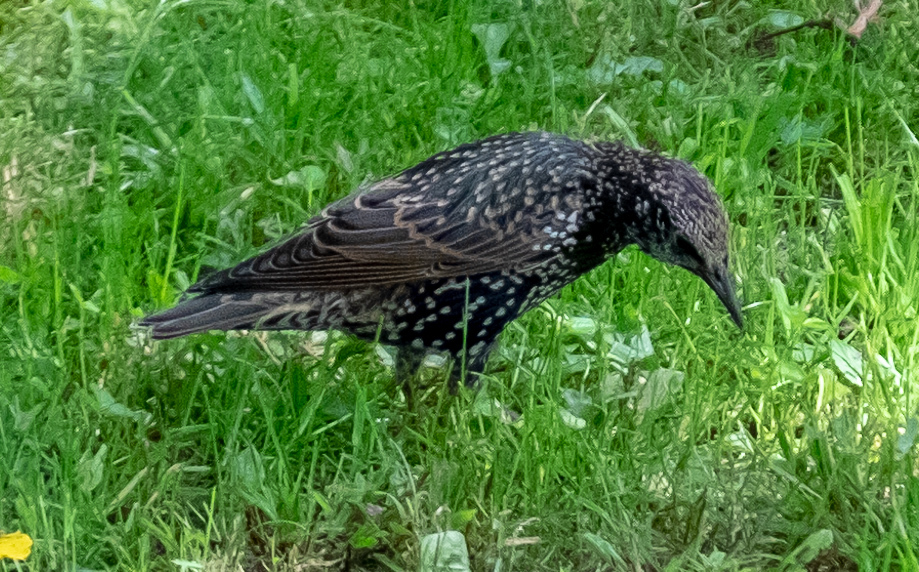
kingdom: Animalia
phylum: Chordata
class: Aves
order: Passeriformes
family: Sturnidae
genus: Sturnus
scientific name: Sturnus vulgaris
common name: Common starling
